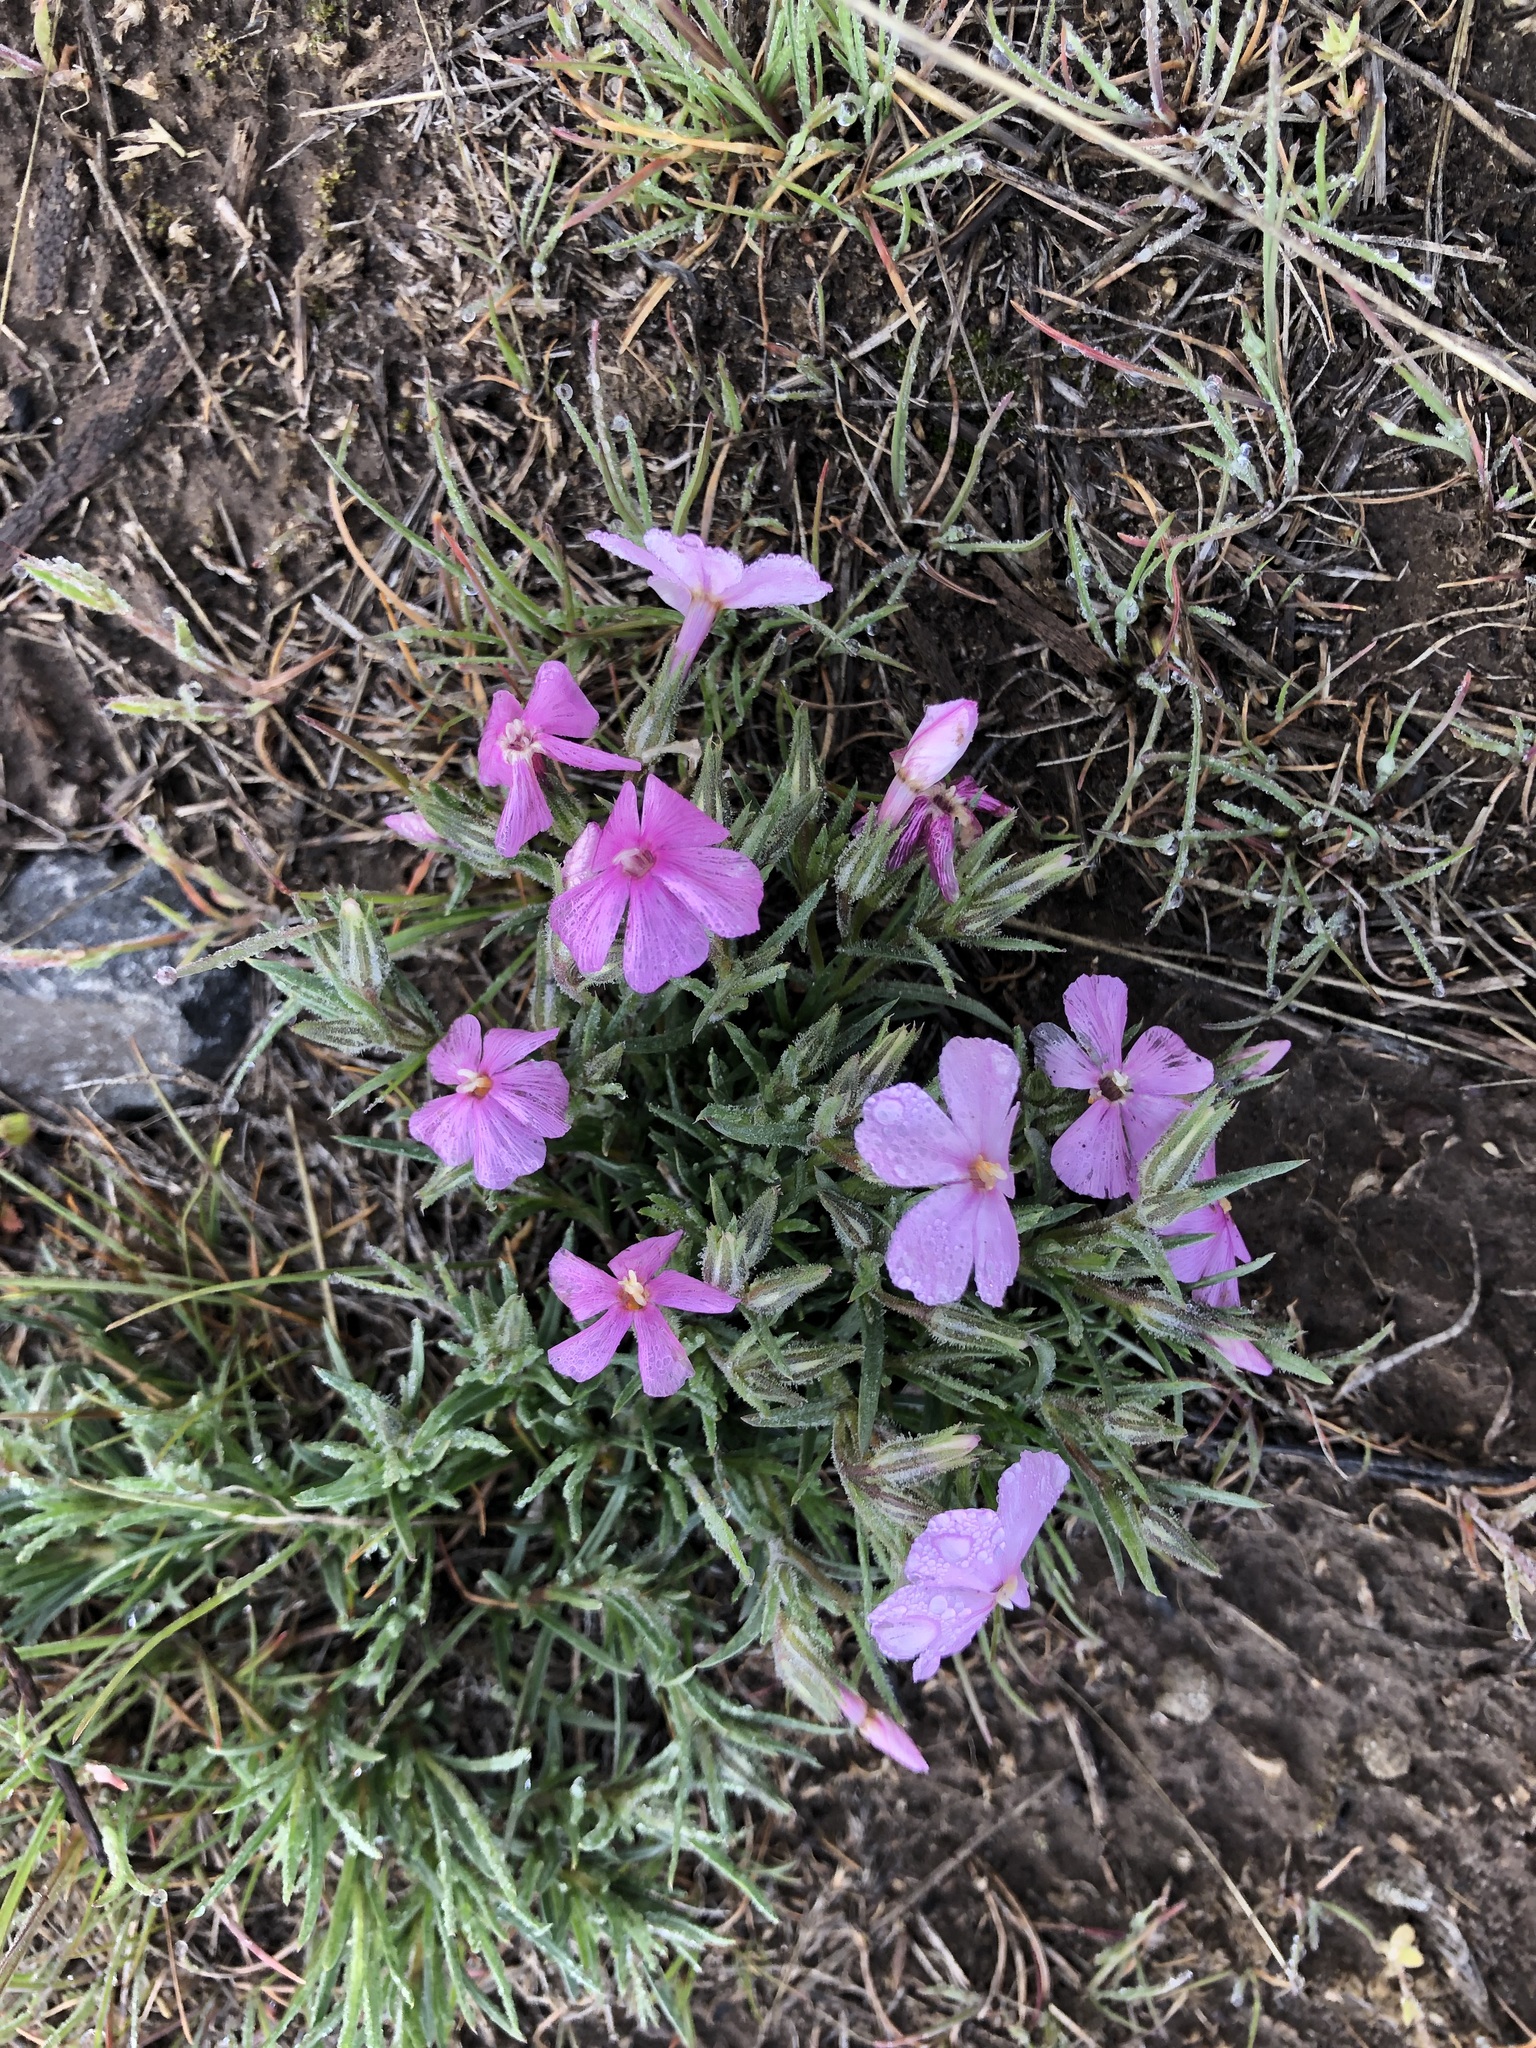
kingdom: Plantae
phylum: Tracheophyta
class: Magnoliopsida
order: Ericales
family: Polemoniaceae
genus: Phlox
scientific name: Phlox douglasii
